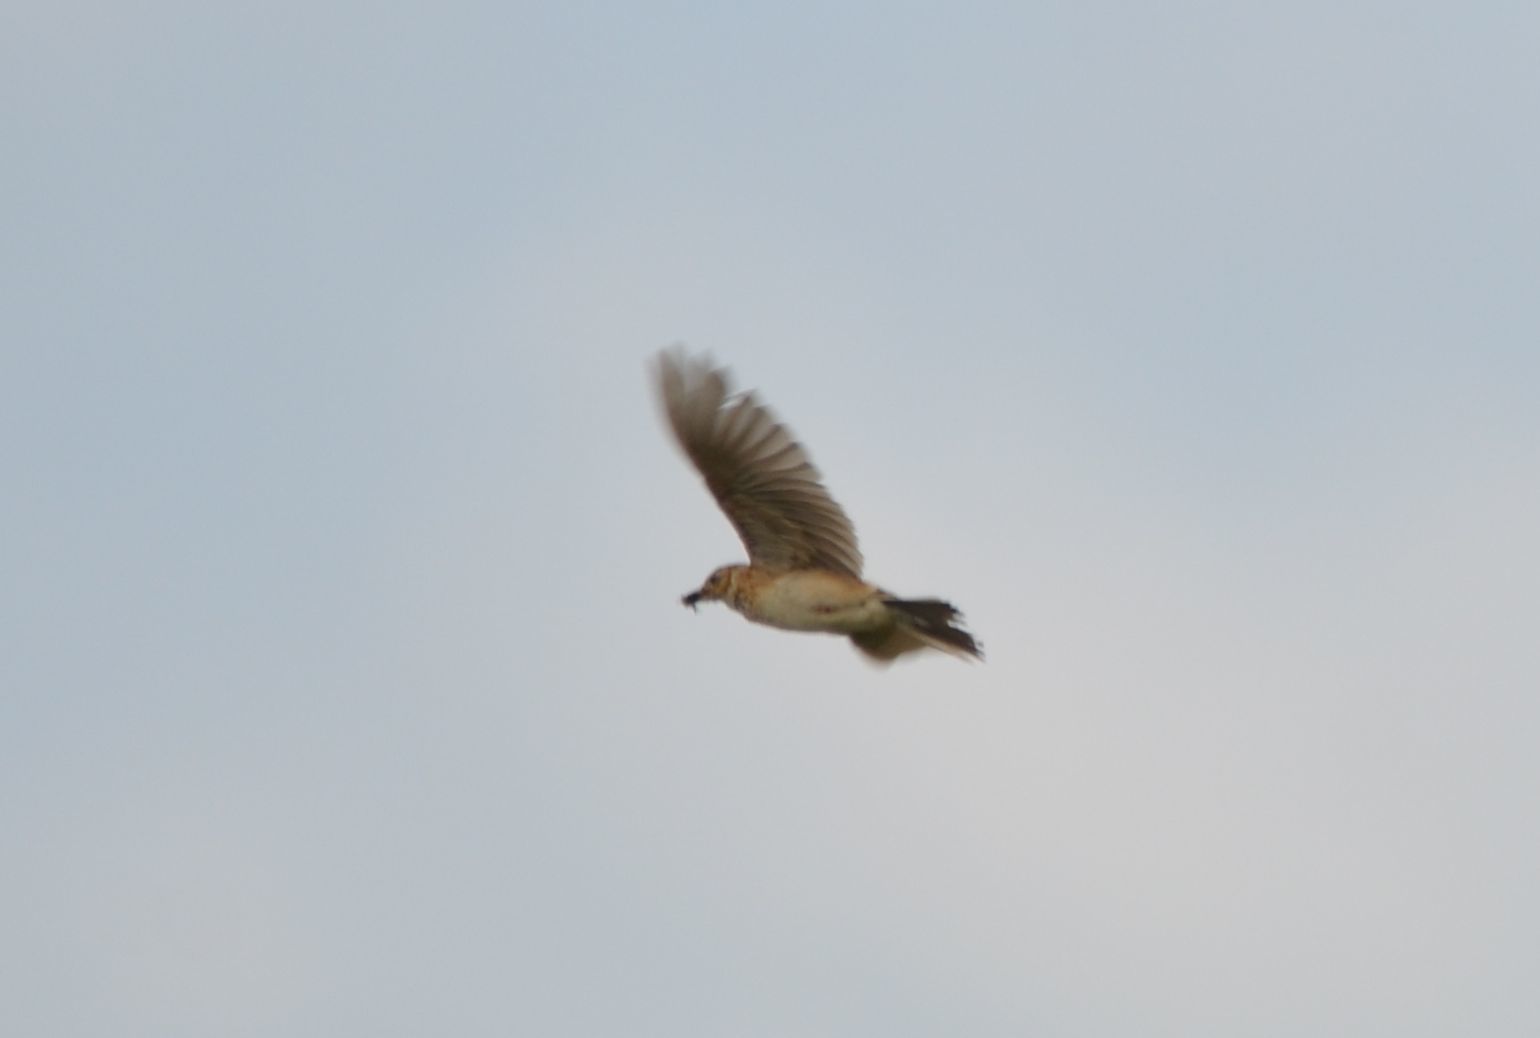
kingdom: Animalia
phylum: Chordata
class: Aves
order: Passeriformes
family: Alaudidae
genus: Alauda
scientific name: Alauda arvensis
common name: Eurasian skylark
